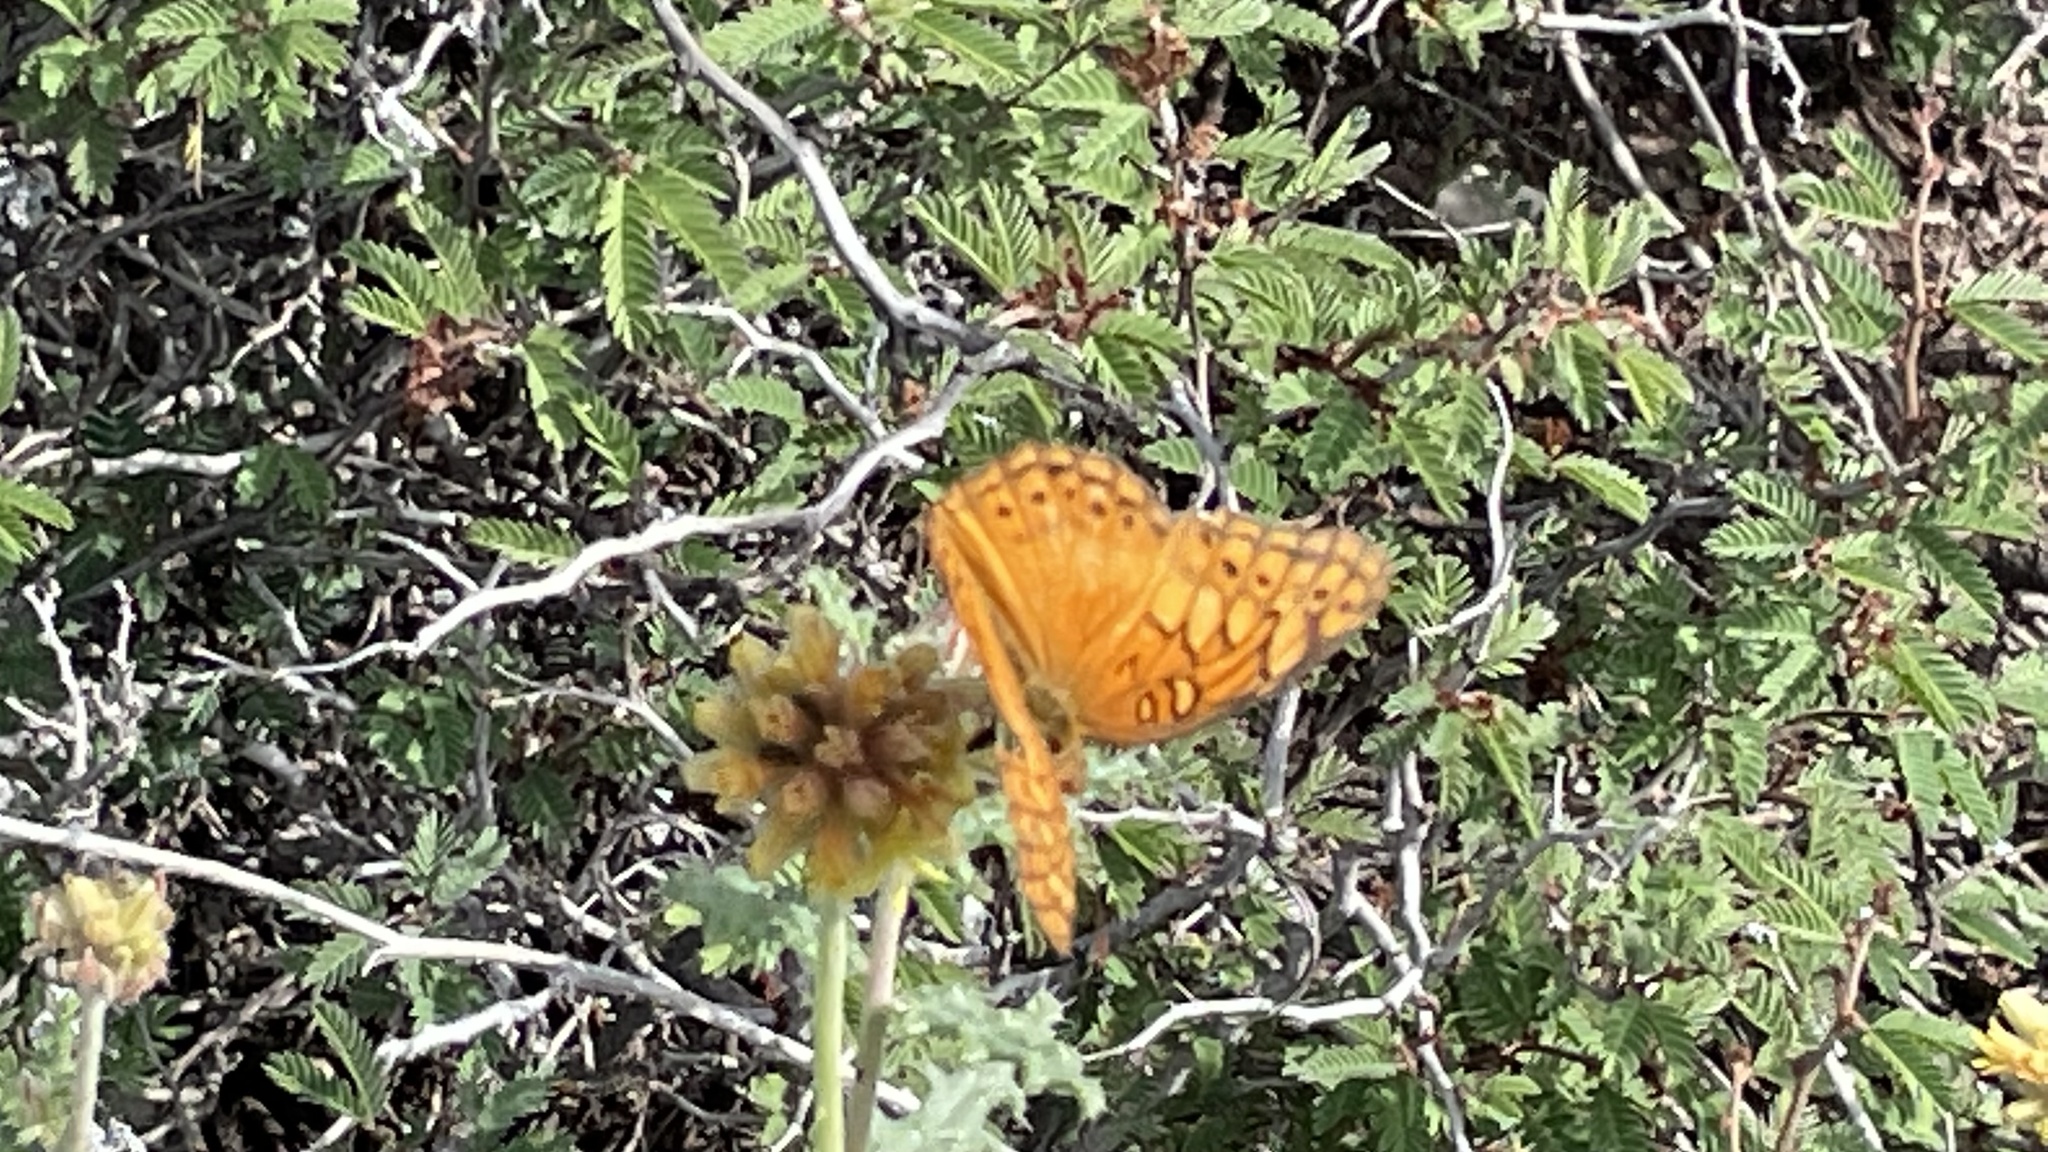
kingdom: Animalia
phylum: Arthropoda
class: Insecta
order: Lepidoptera
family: Nymphalidae
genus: Euptoieta
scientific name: Euptoieta hegesia
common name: Mexican fritillary
